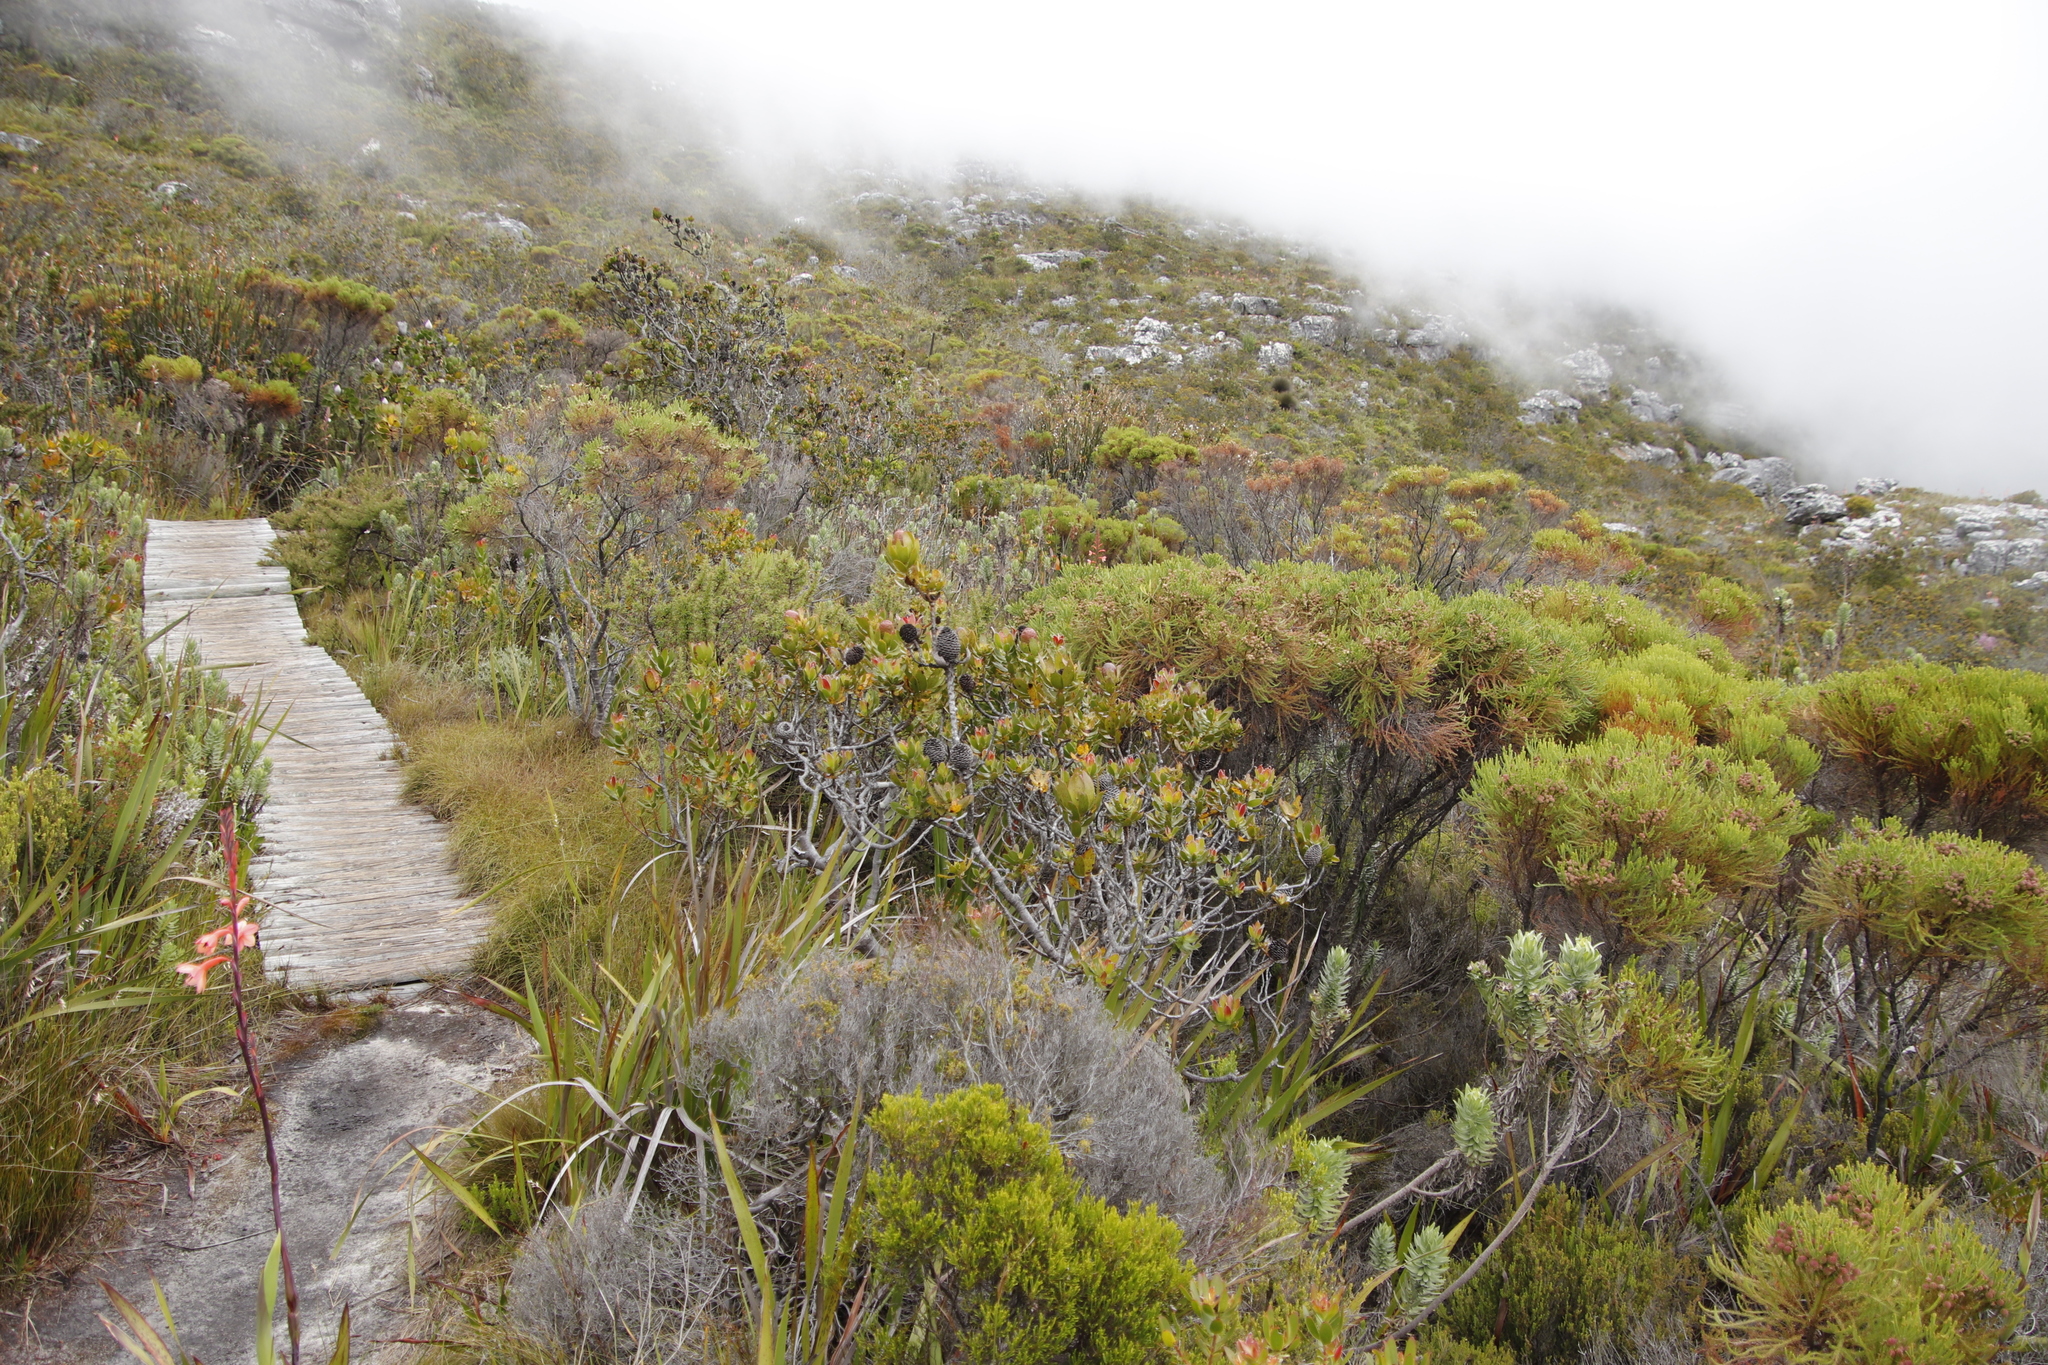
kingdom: Plantae
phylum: Tracheophyta
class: Magnoliopsida
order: Proteales
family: Proteaceae
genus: Leucadendron
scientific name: Leucadendron strobilinum
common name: Mountain rose
